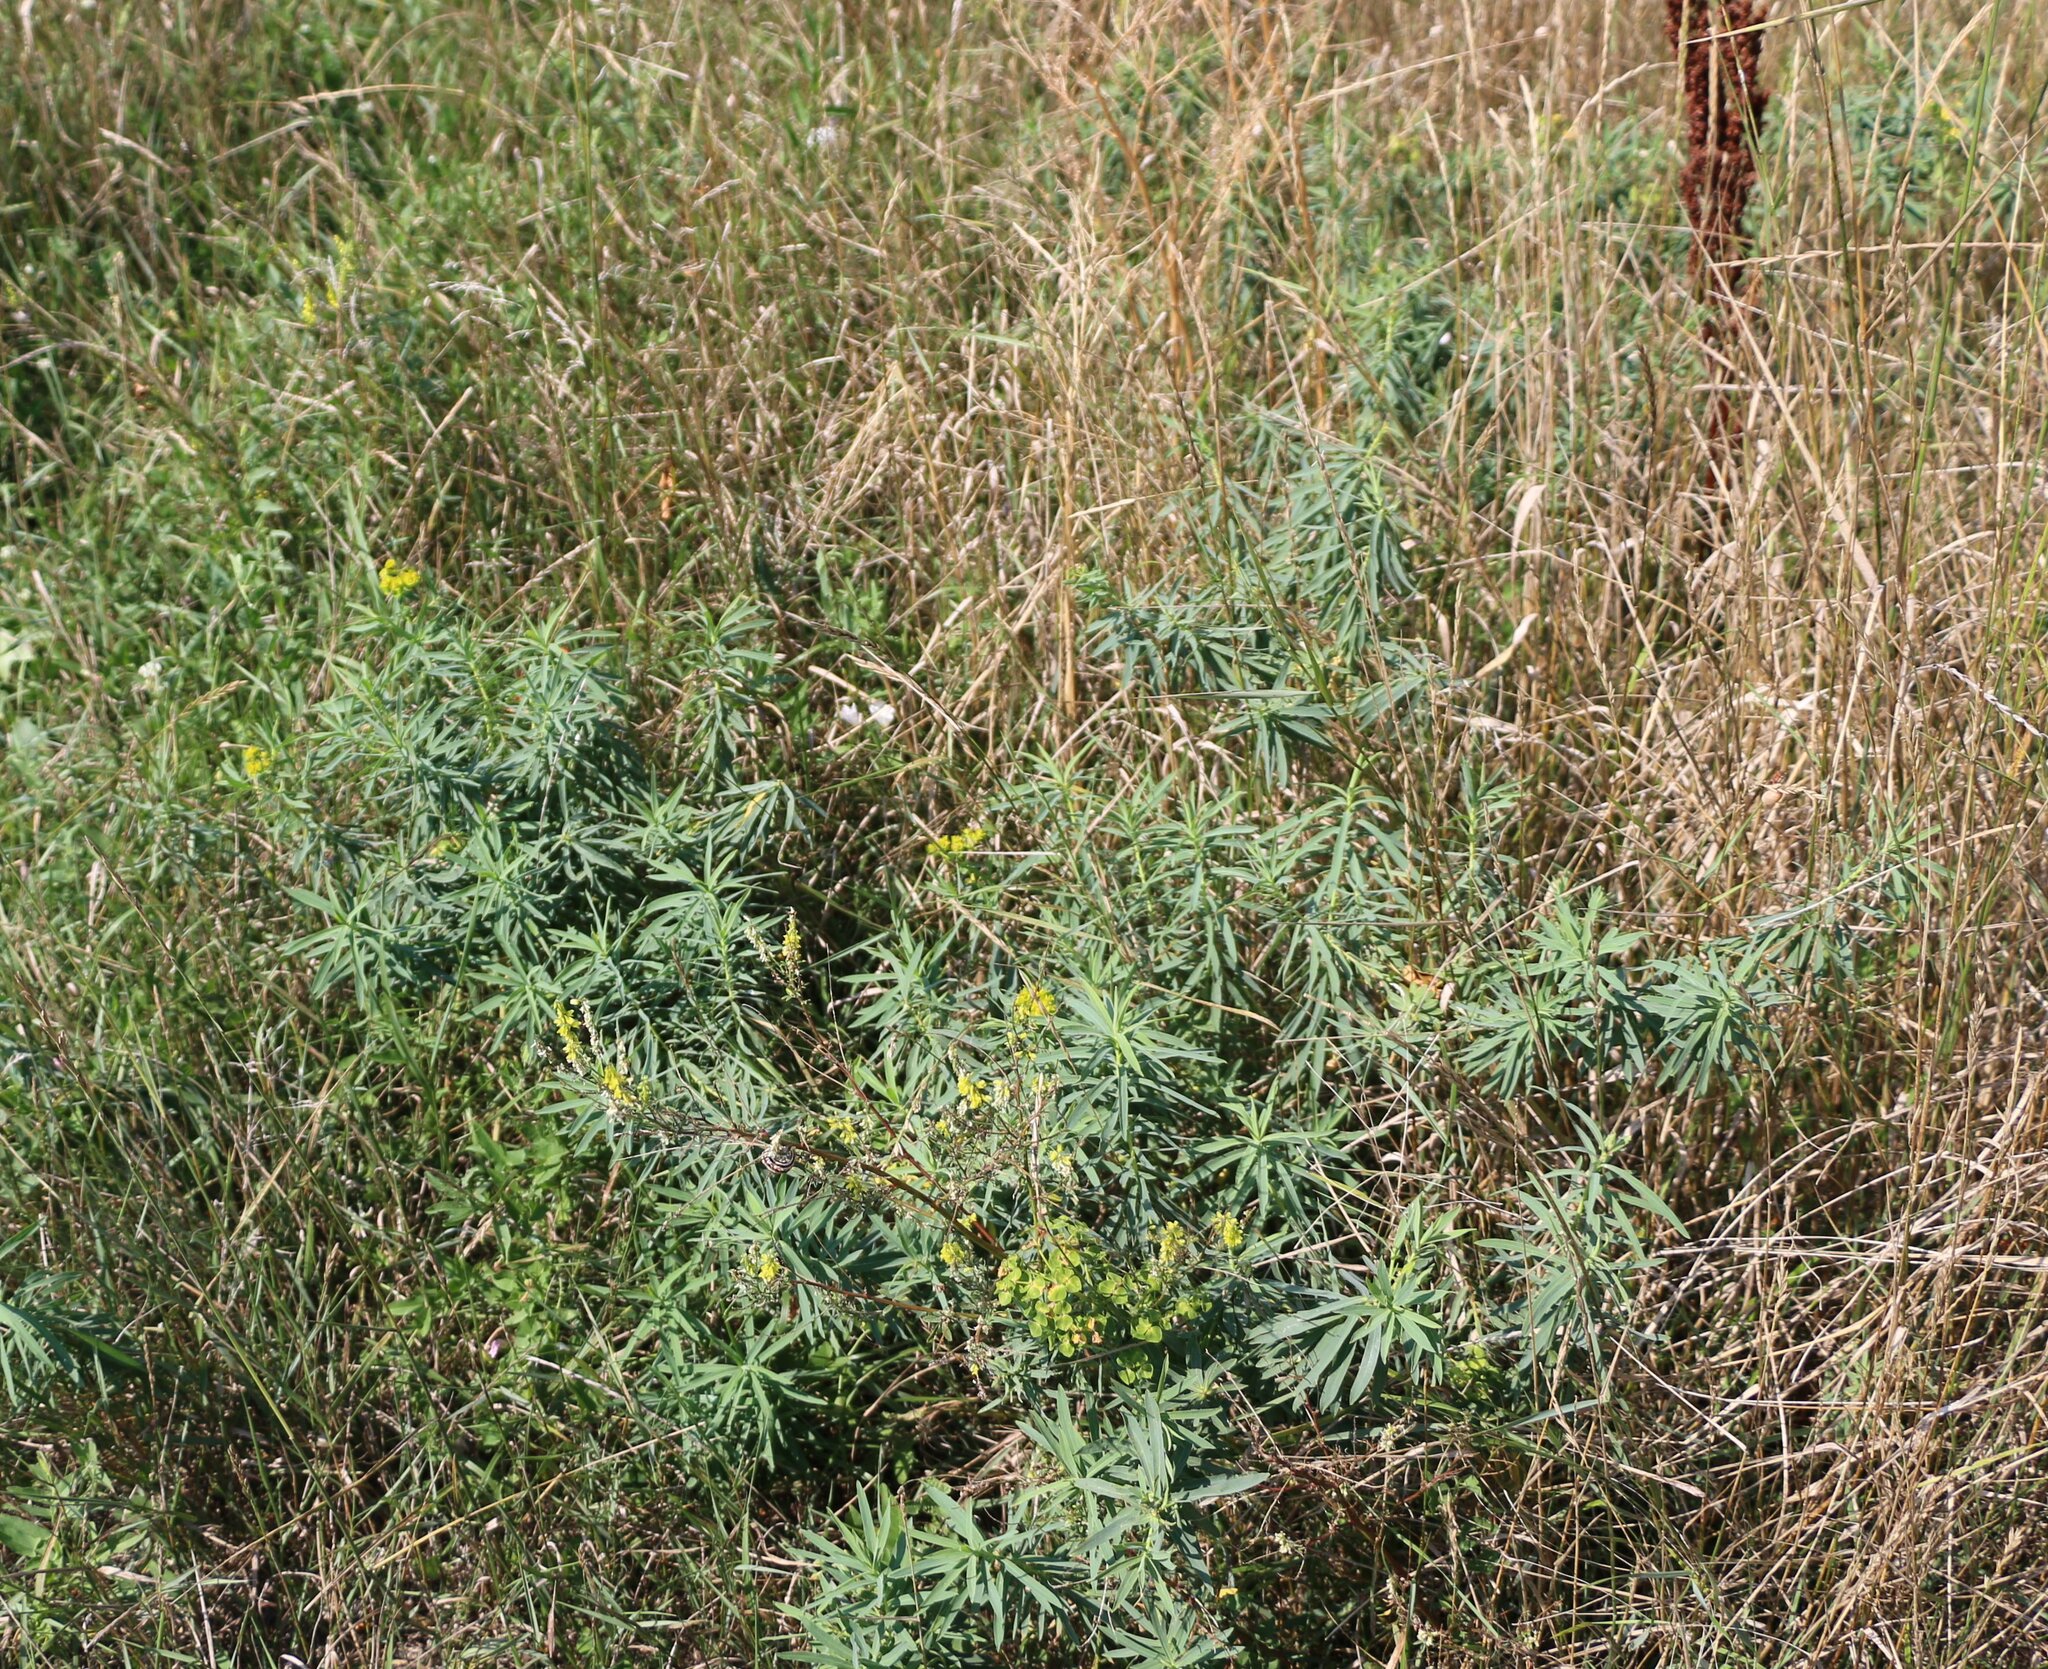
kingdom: Plantae
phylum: Tracheophyta
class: Magnoliopsida
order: Malpighiales
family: Euphorbiaceae
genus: Euphorbia
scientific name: Euphorbia virgata
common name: Leafy spurge
